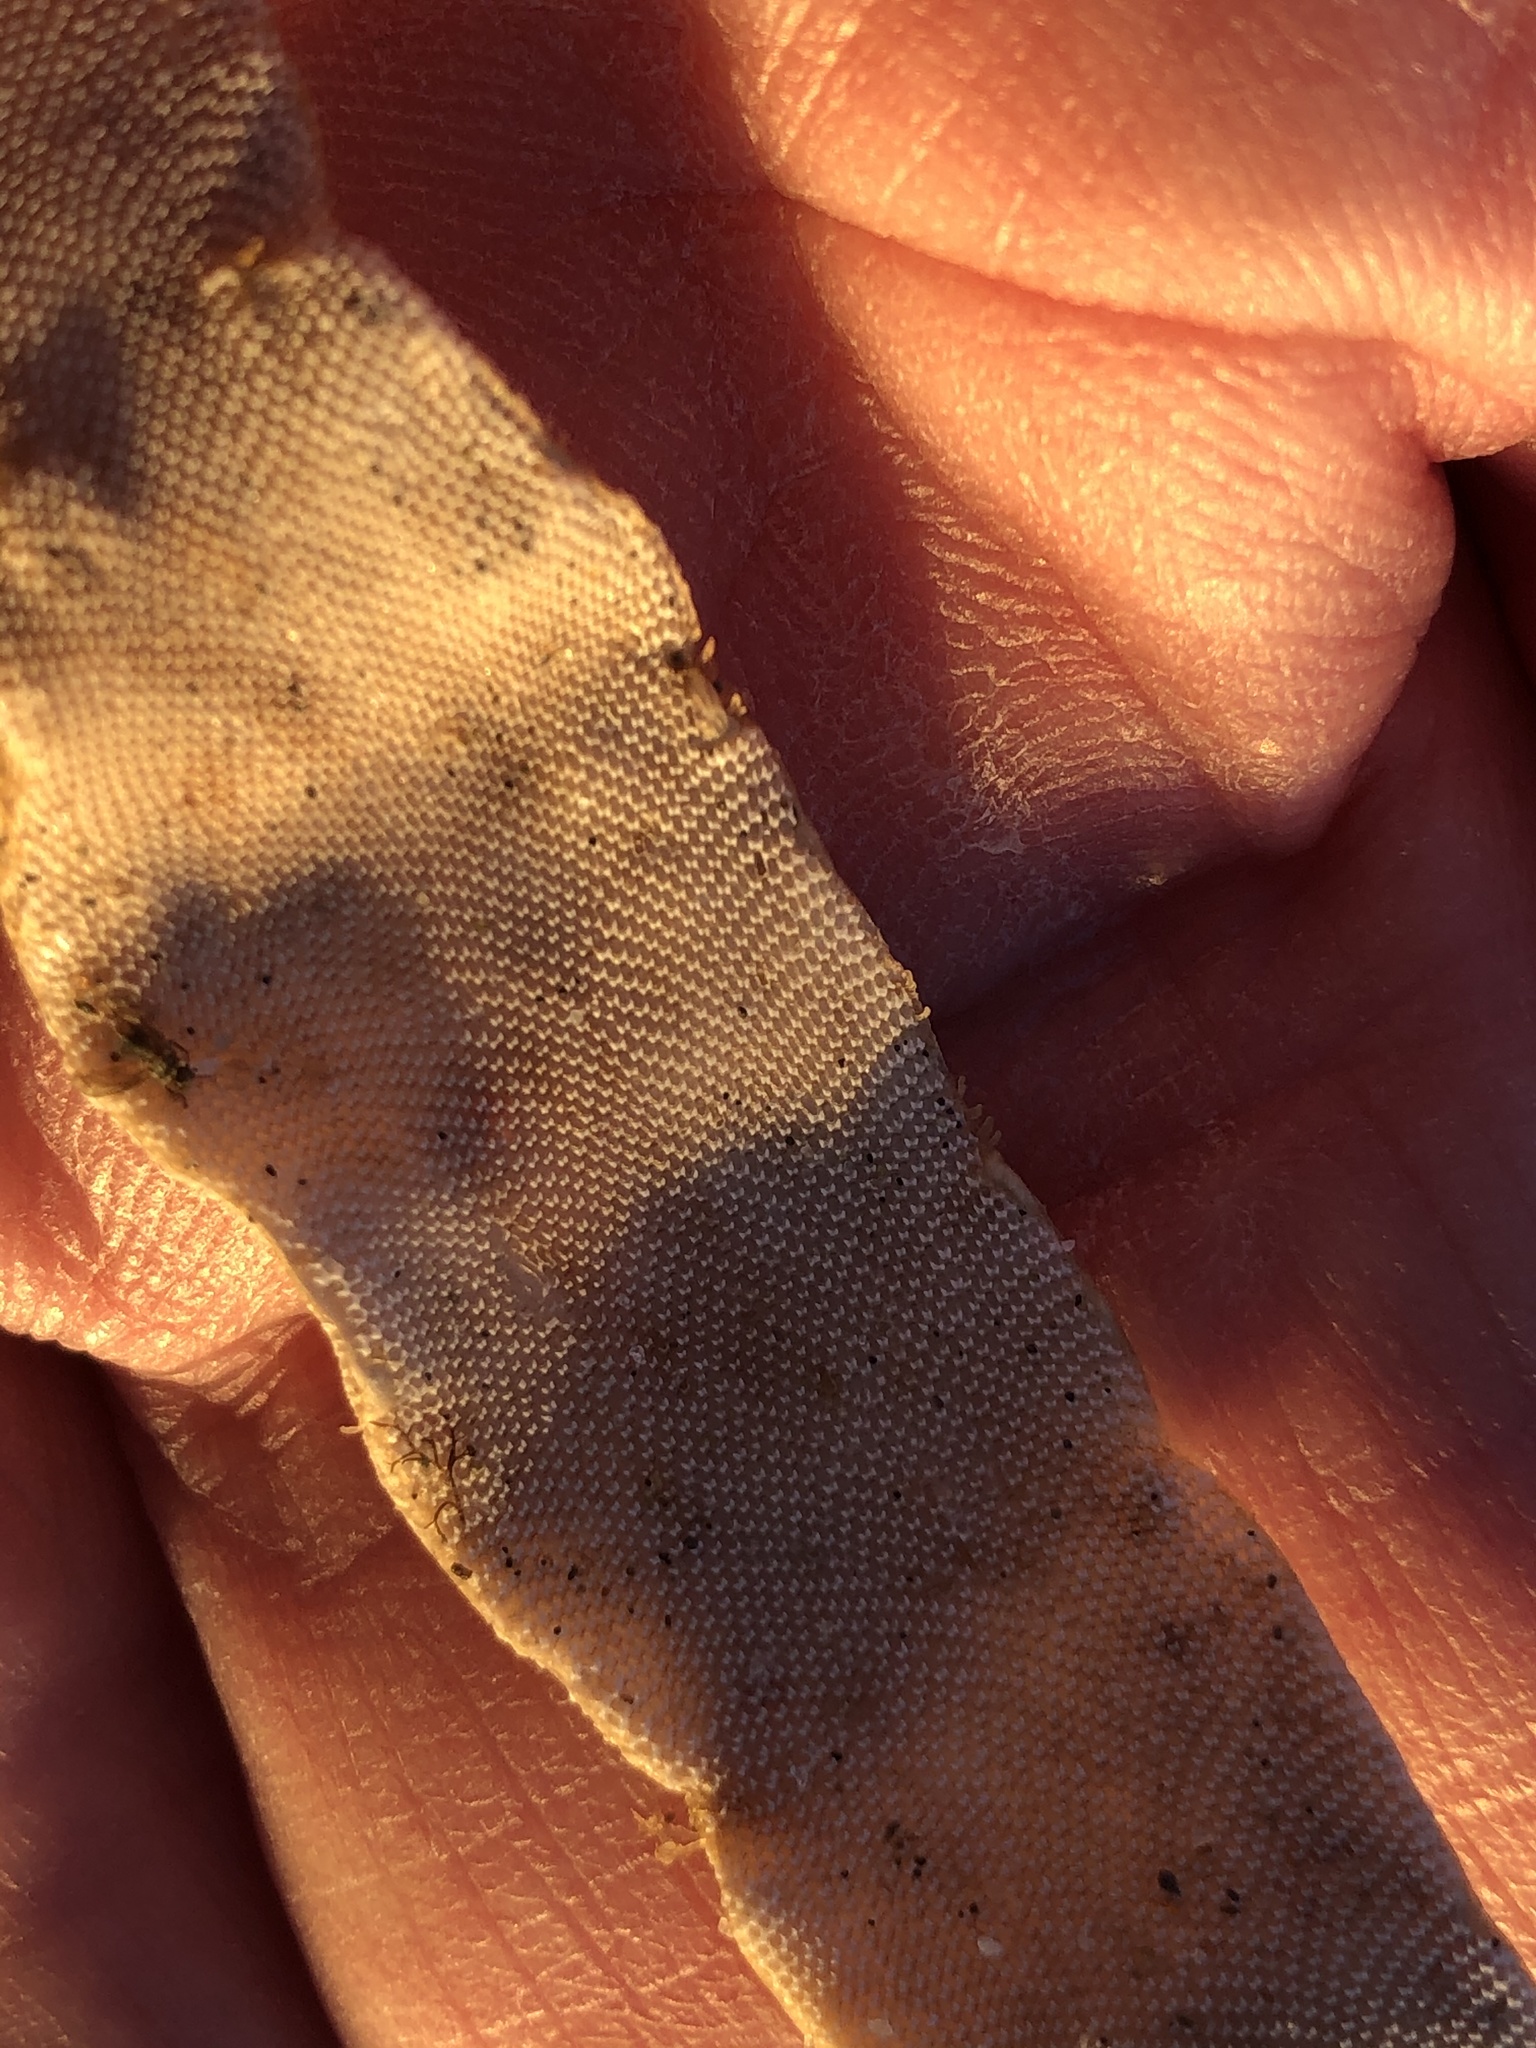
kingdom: Animalia
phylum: Bryozoa
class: Gymnolaemata
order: Cheilostomatida
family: Membraniporidae
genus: Jellyella
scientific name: Jellyella tuberculata
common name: Sargassum bryozoan
